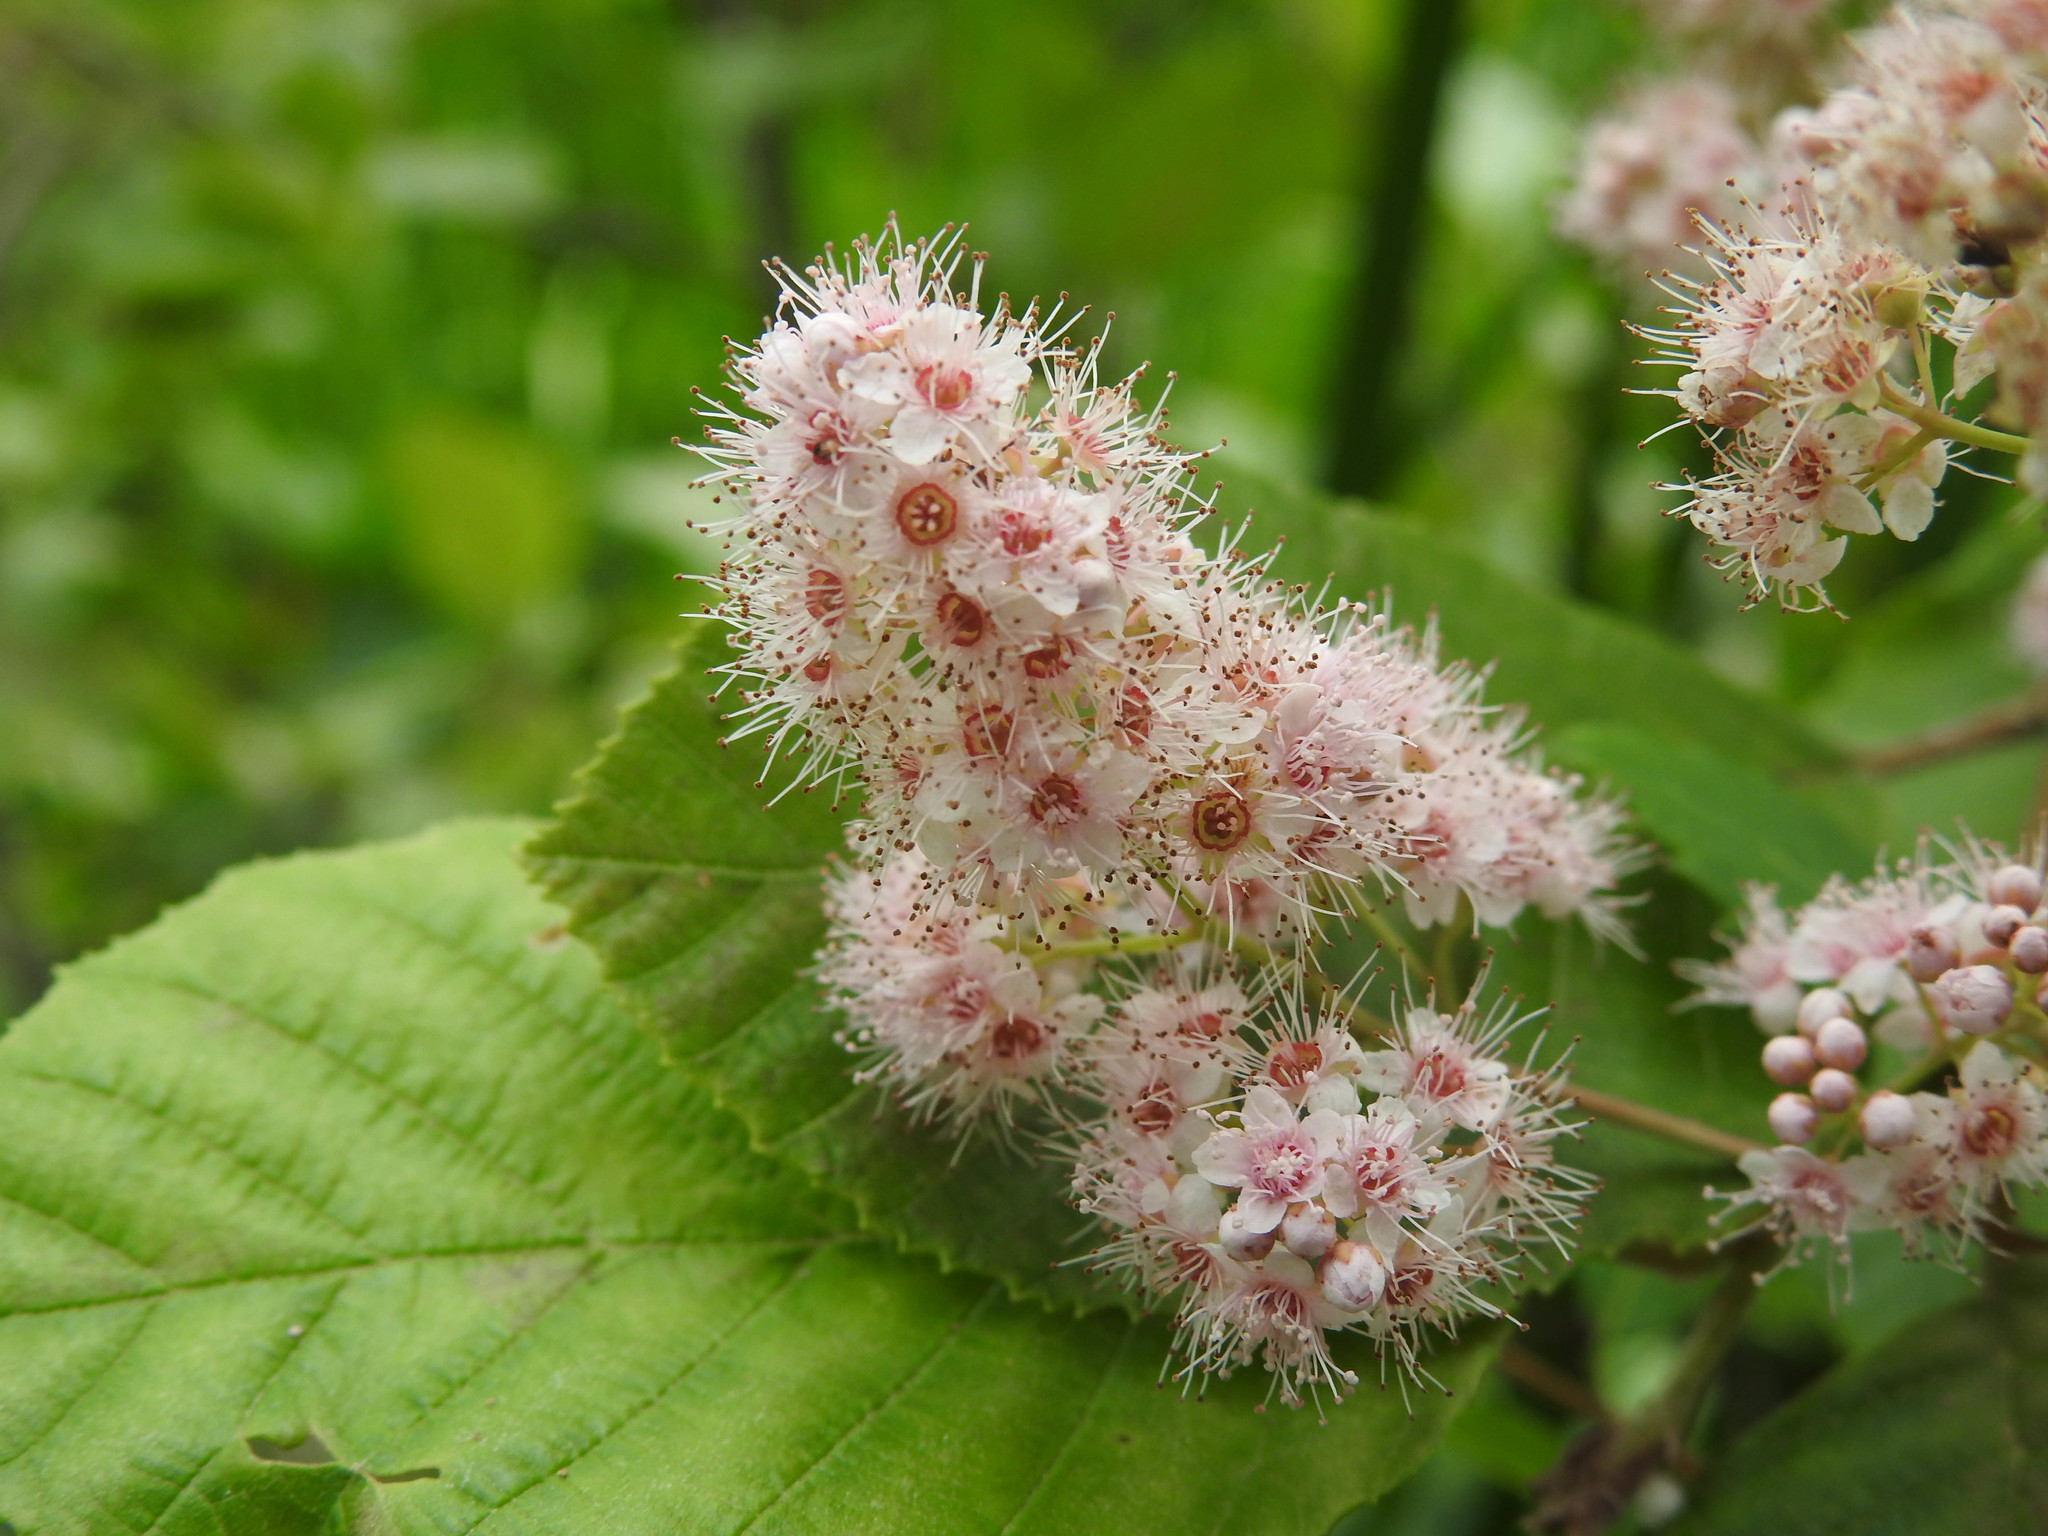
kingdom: Plantae
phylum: Tracheophyta
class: Magnoliopsida
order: Rosales
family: Rosaceae
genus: Spiraea
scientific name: Spiraea alba
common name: Pale bridewort
